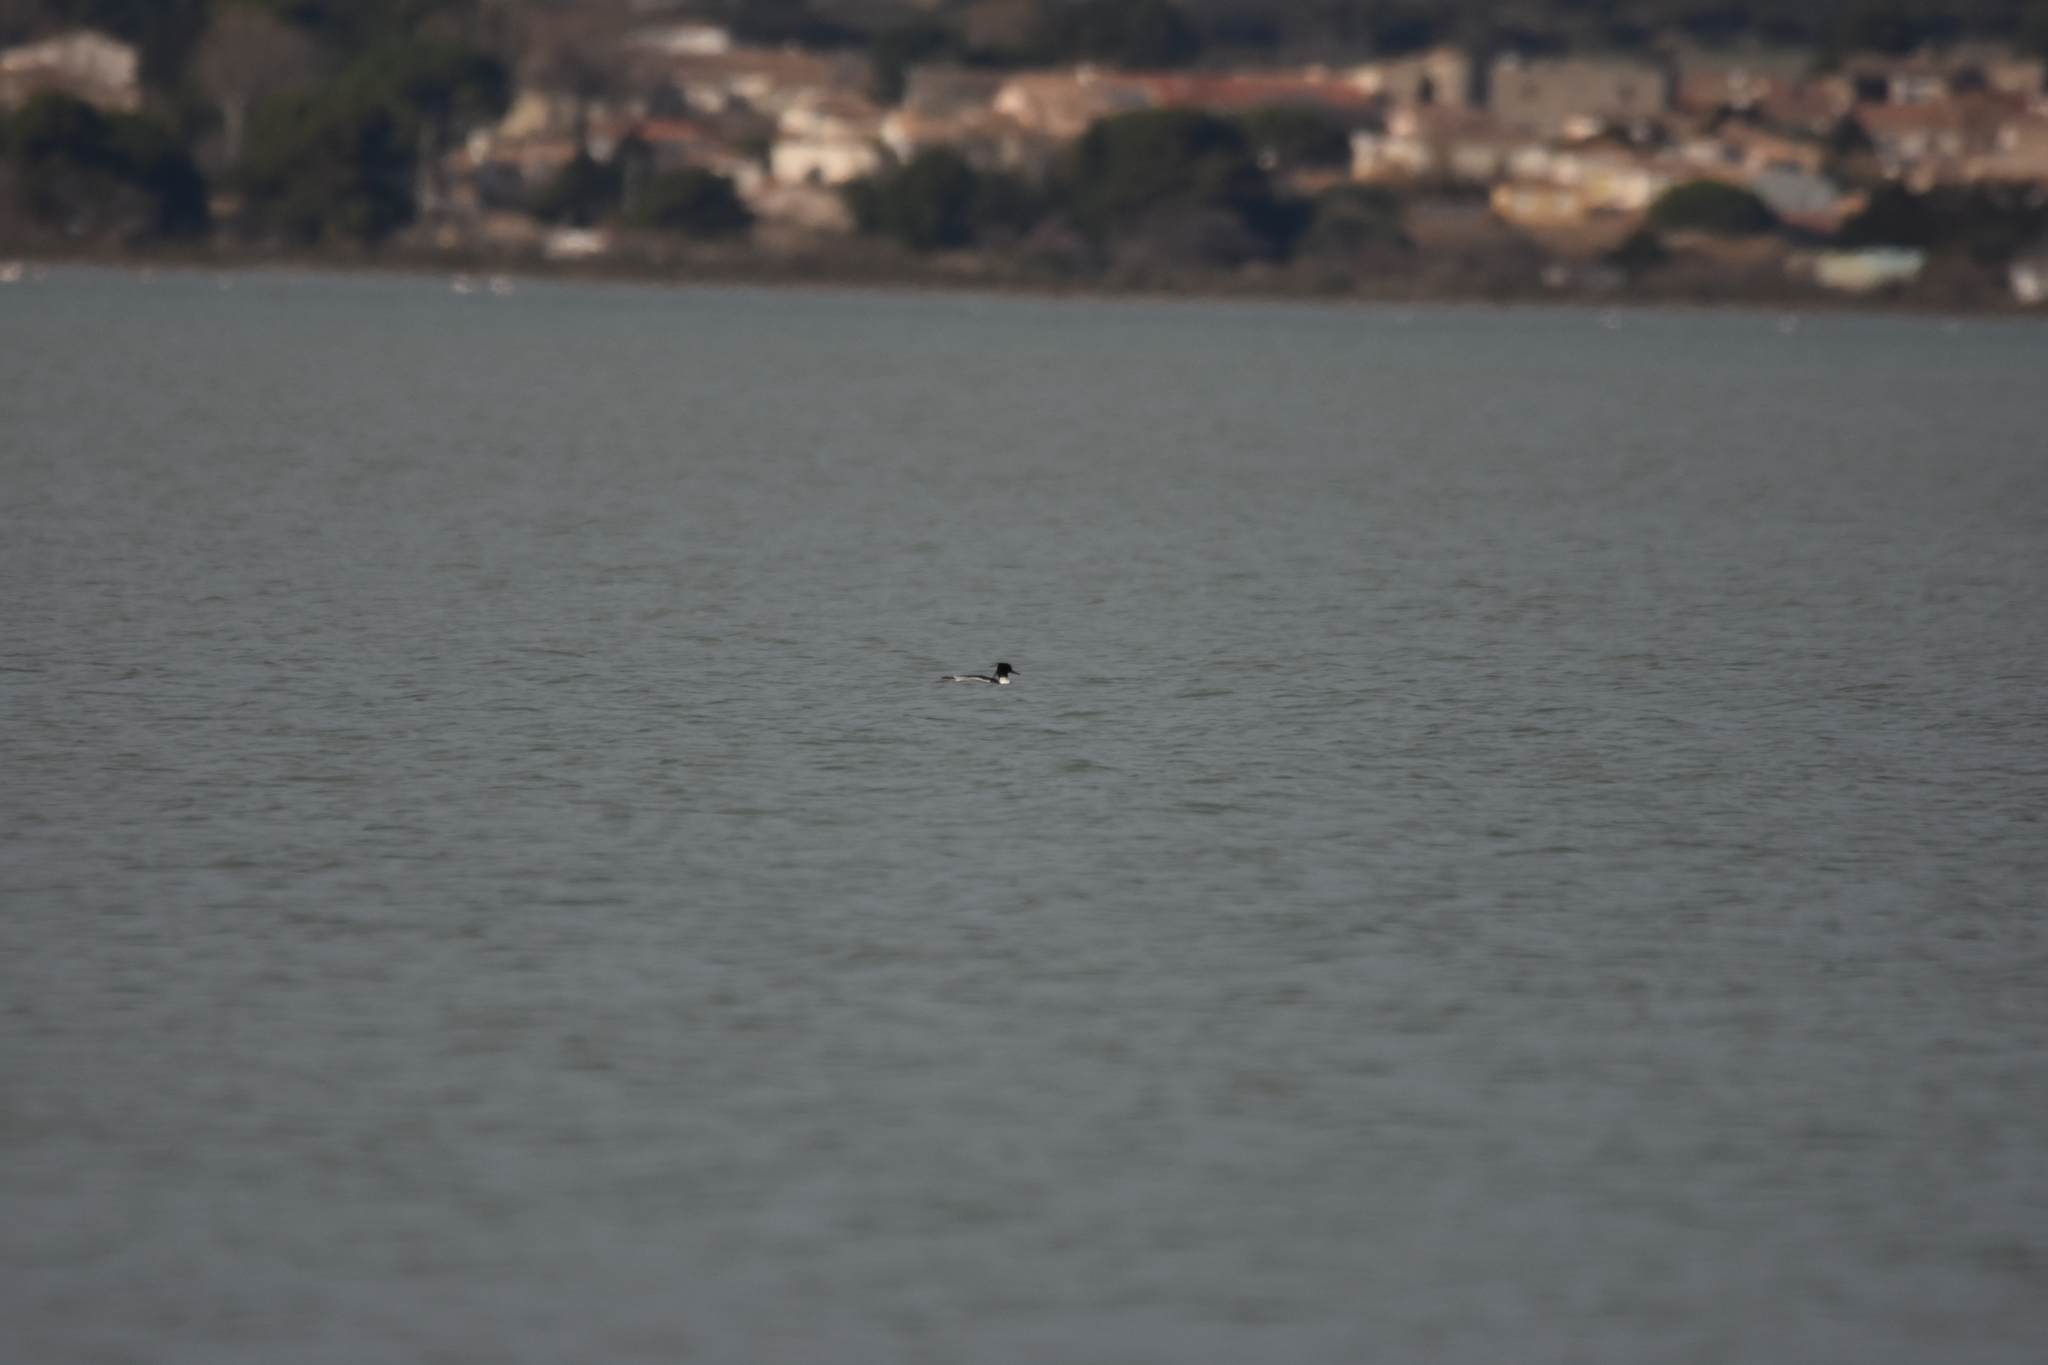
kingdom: Animalia
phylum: Chordata
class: Aves
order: Anseriformes
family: Anatidae
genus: Mergus
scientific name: Mergus serrator
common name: Red-breasted merganser
